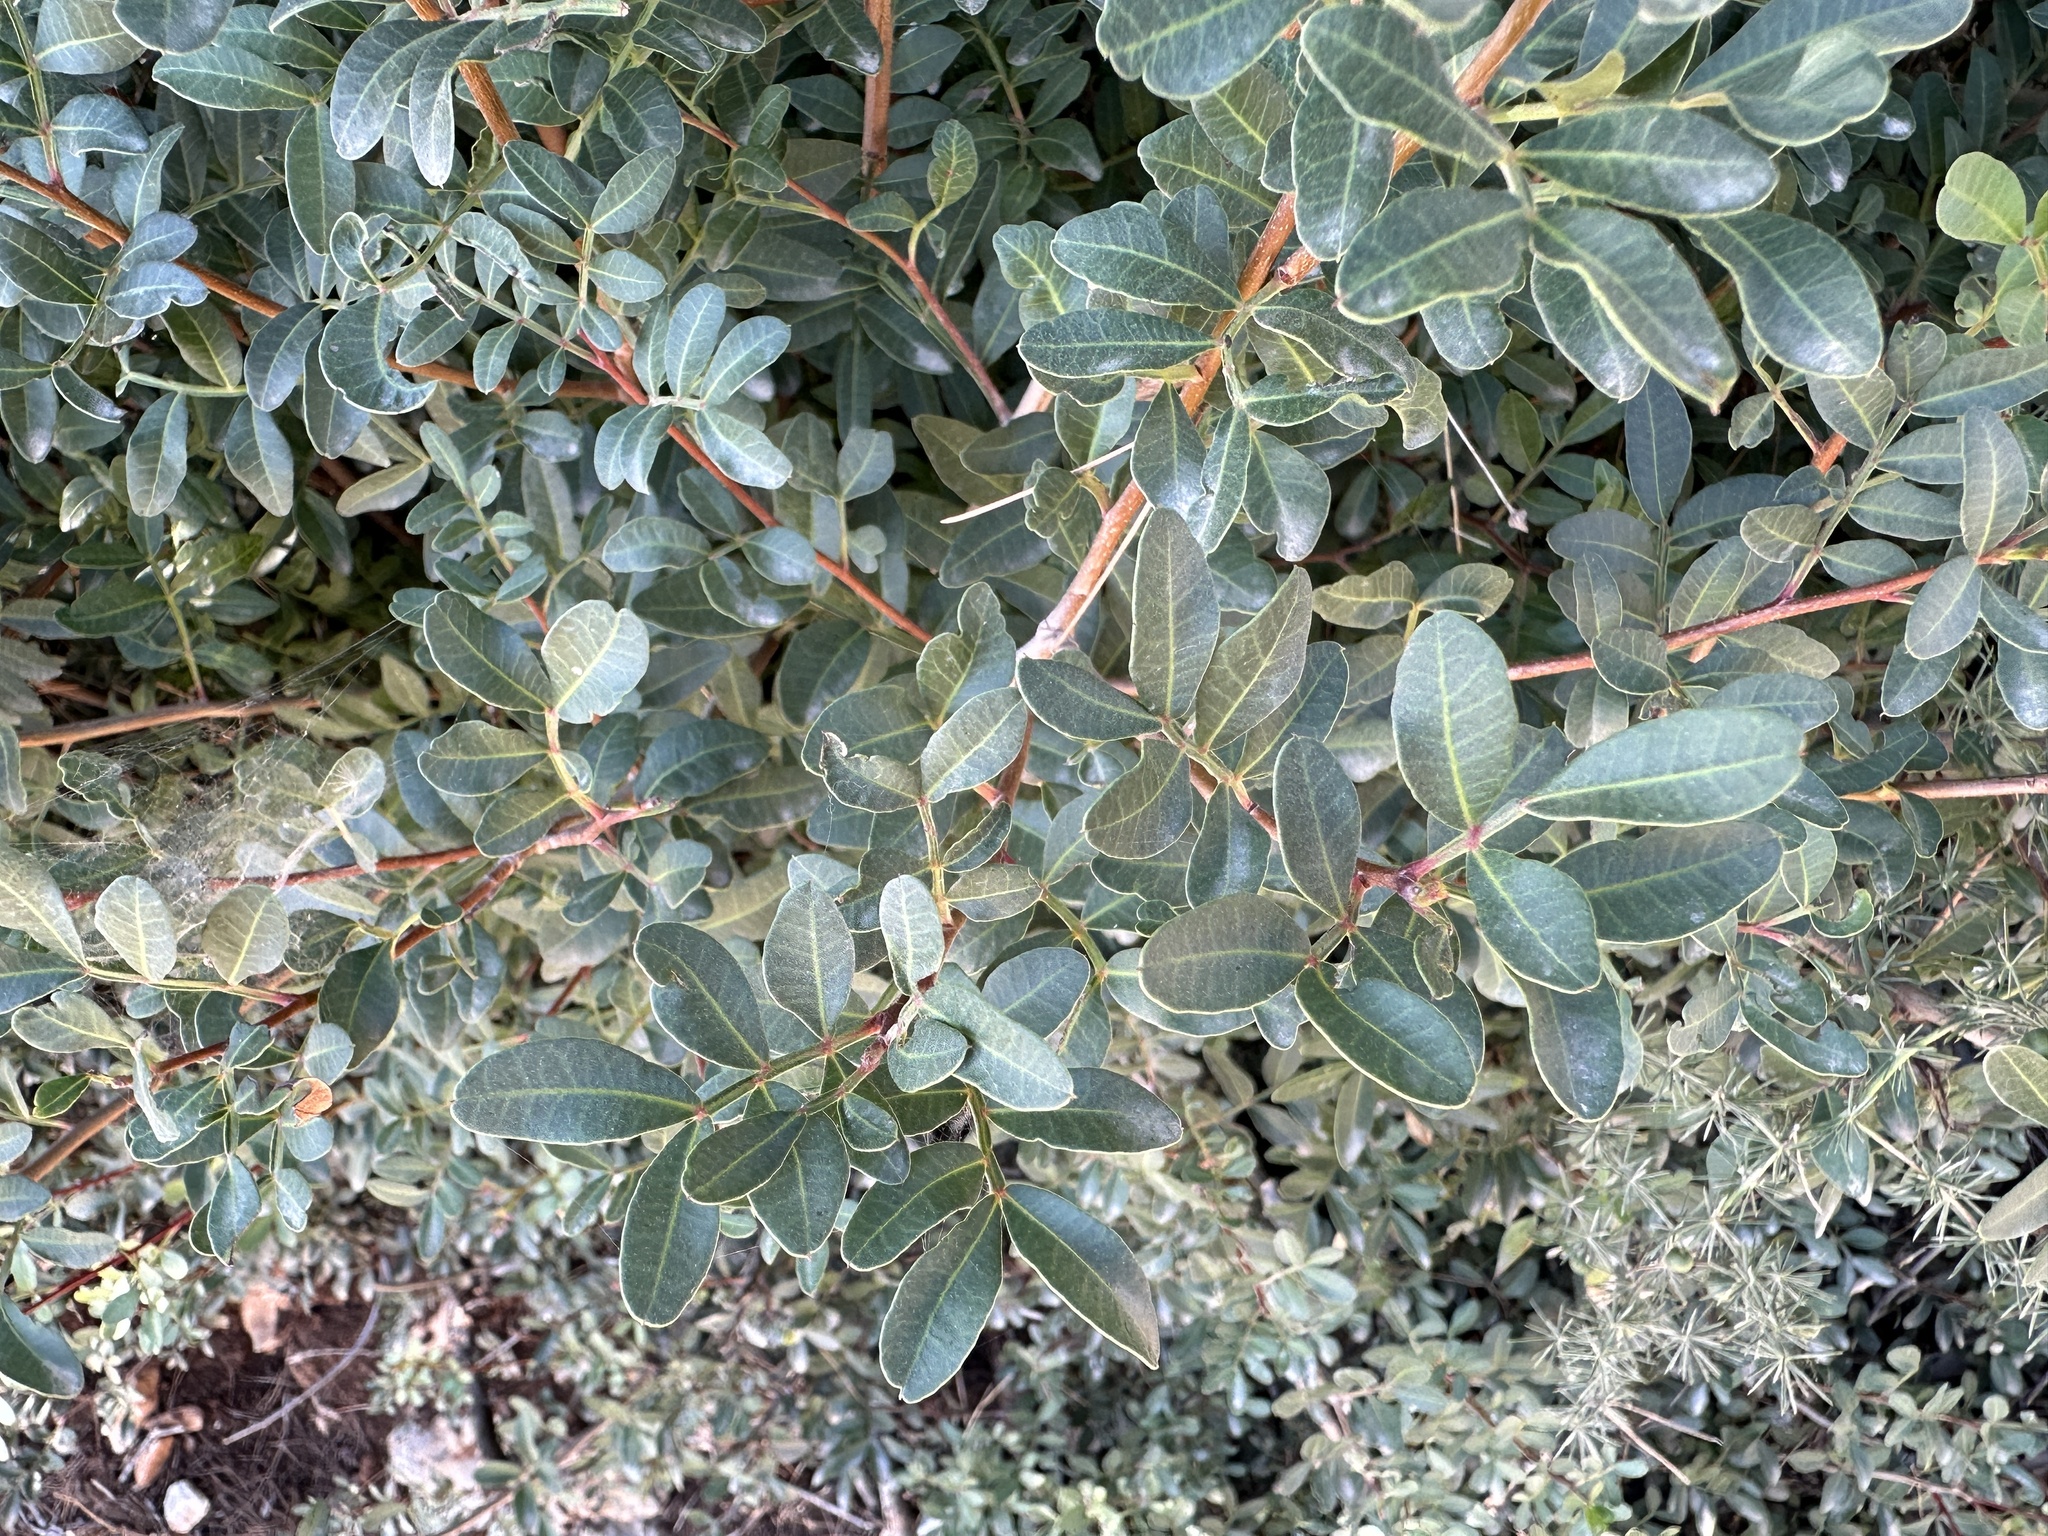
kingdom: Plantae
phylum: Tracheophyta
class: Magnoliopsida
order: Sapindales
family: Anacardiaceae
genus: Pistacia
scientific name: Pistacia lentiscus
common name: Lentisk
